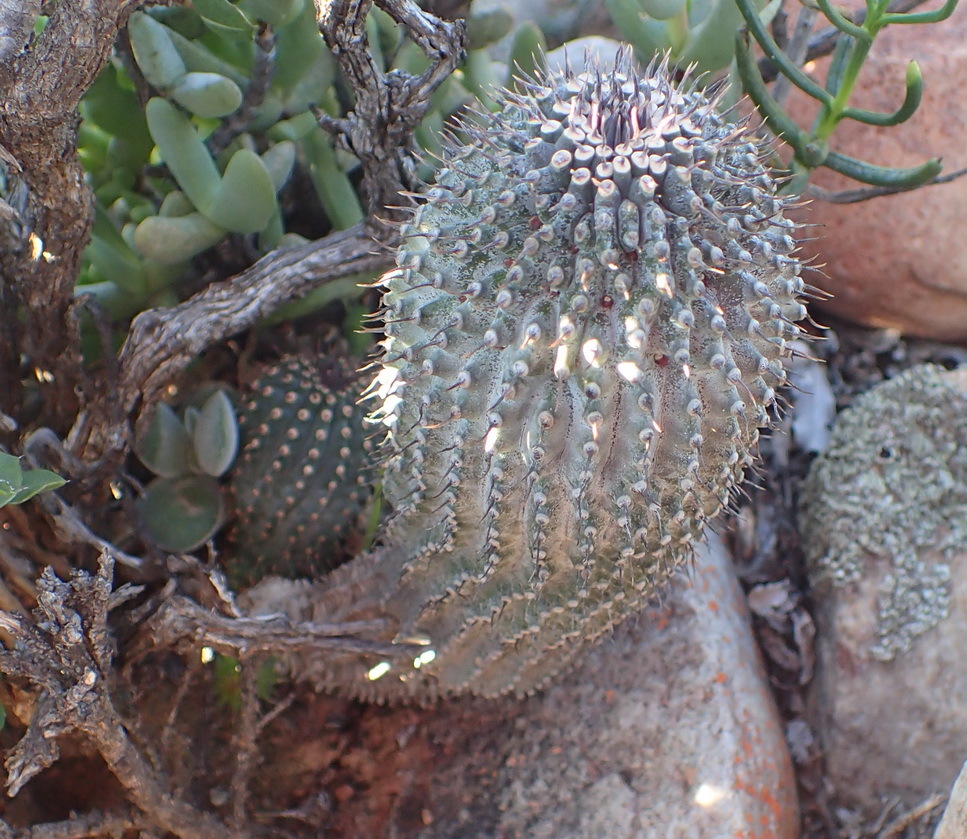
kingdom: Plantae
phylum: Tracheophyta
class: Magnoliopsida
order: Gentianales
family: Apocynaceae
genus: Ceropegia
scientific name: Ceropegia coleorum
